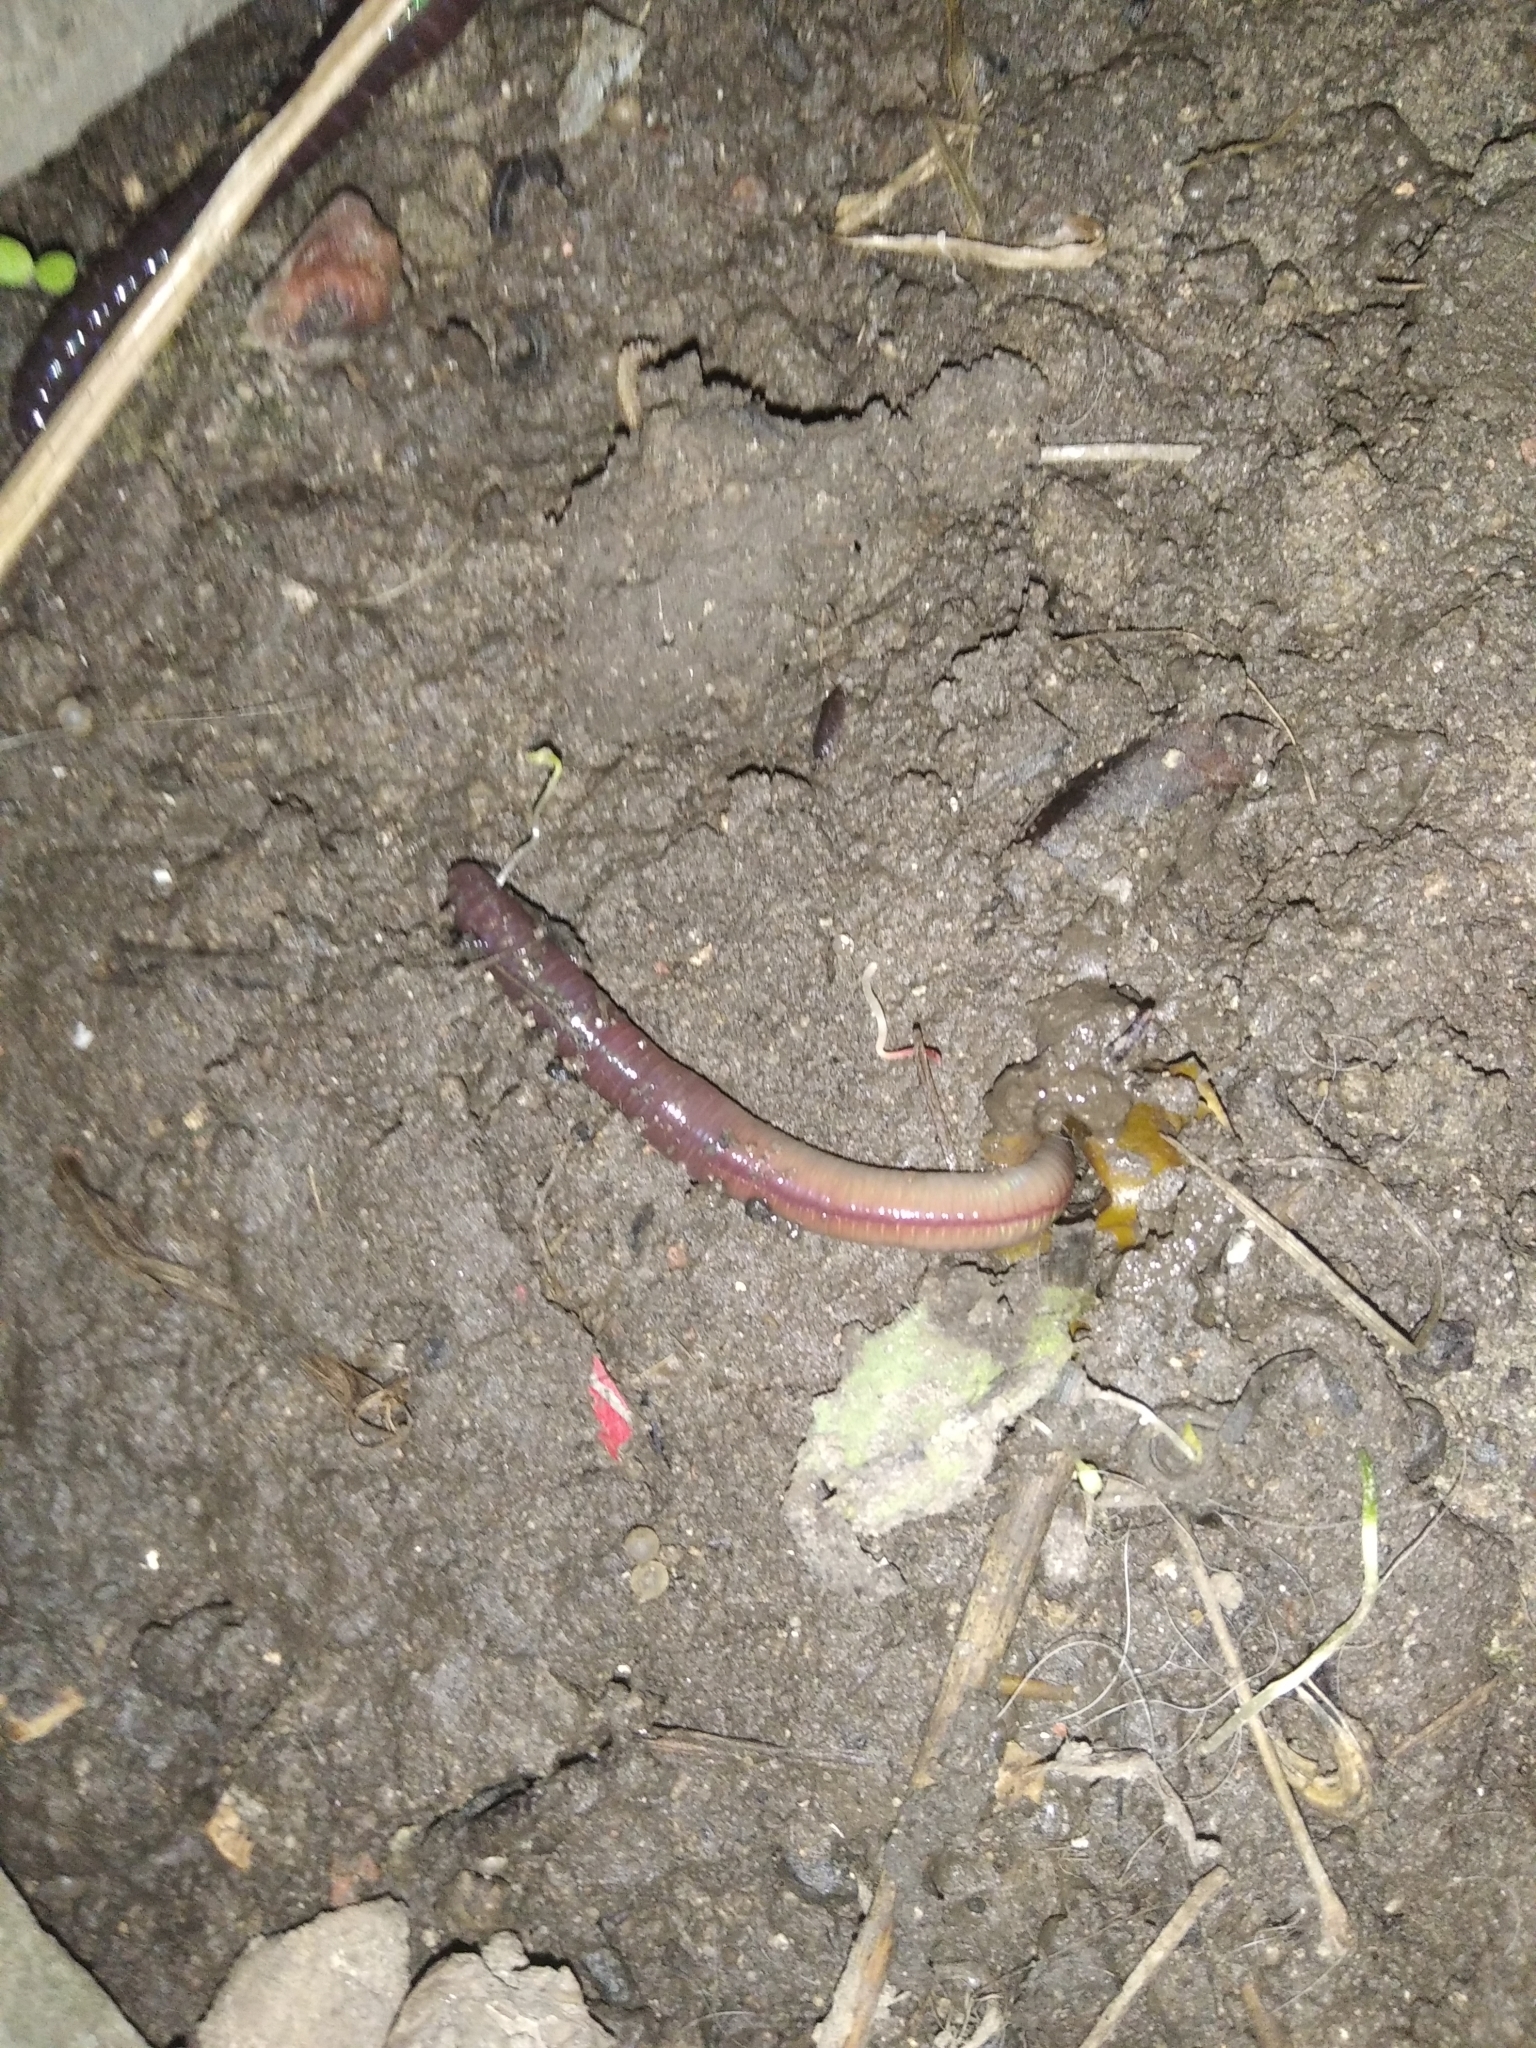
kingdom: Animalia
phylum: Annelida
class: Clitellata
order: Crassiclitellata
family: Lumbricidae
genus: Lumbricus
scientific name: Lumbricus terrestris
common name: Common earthworm
